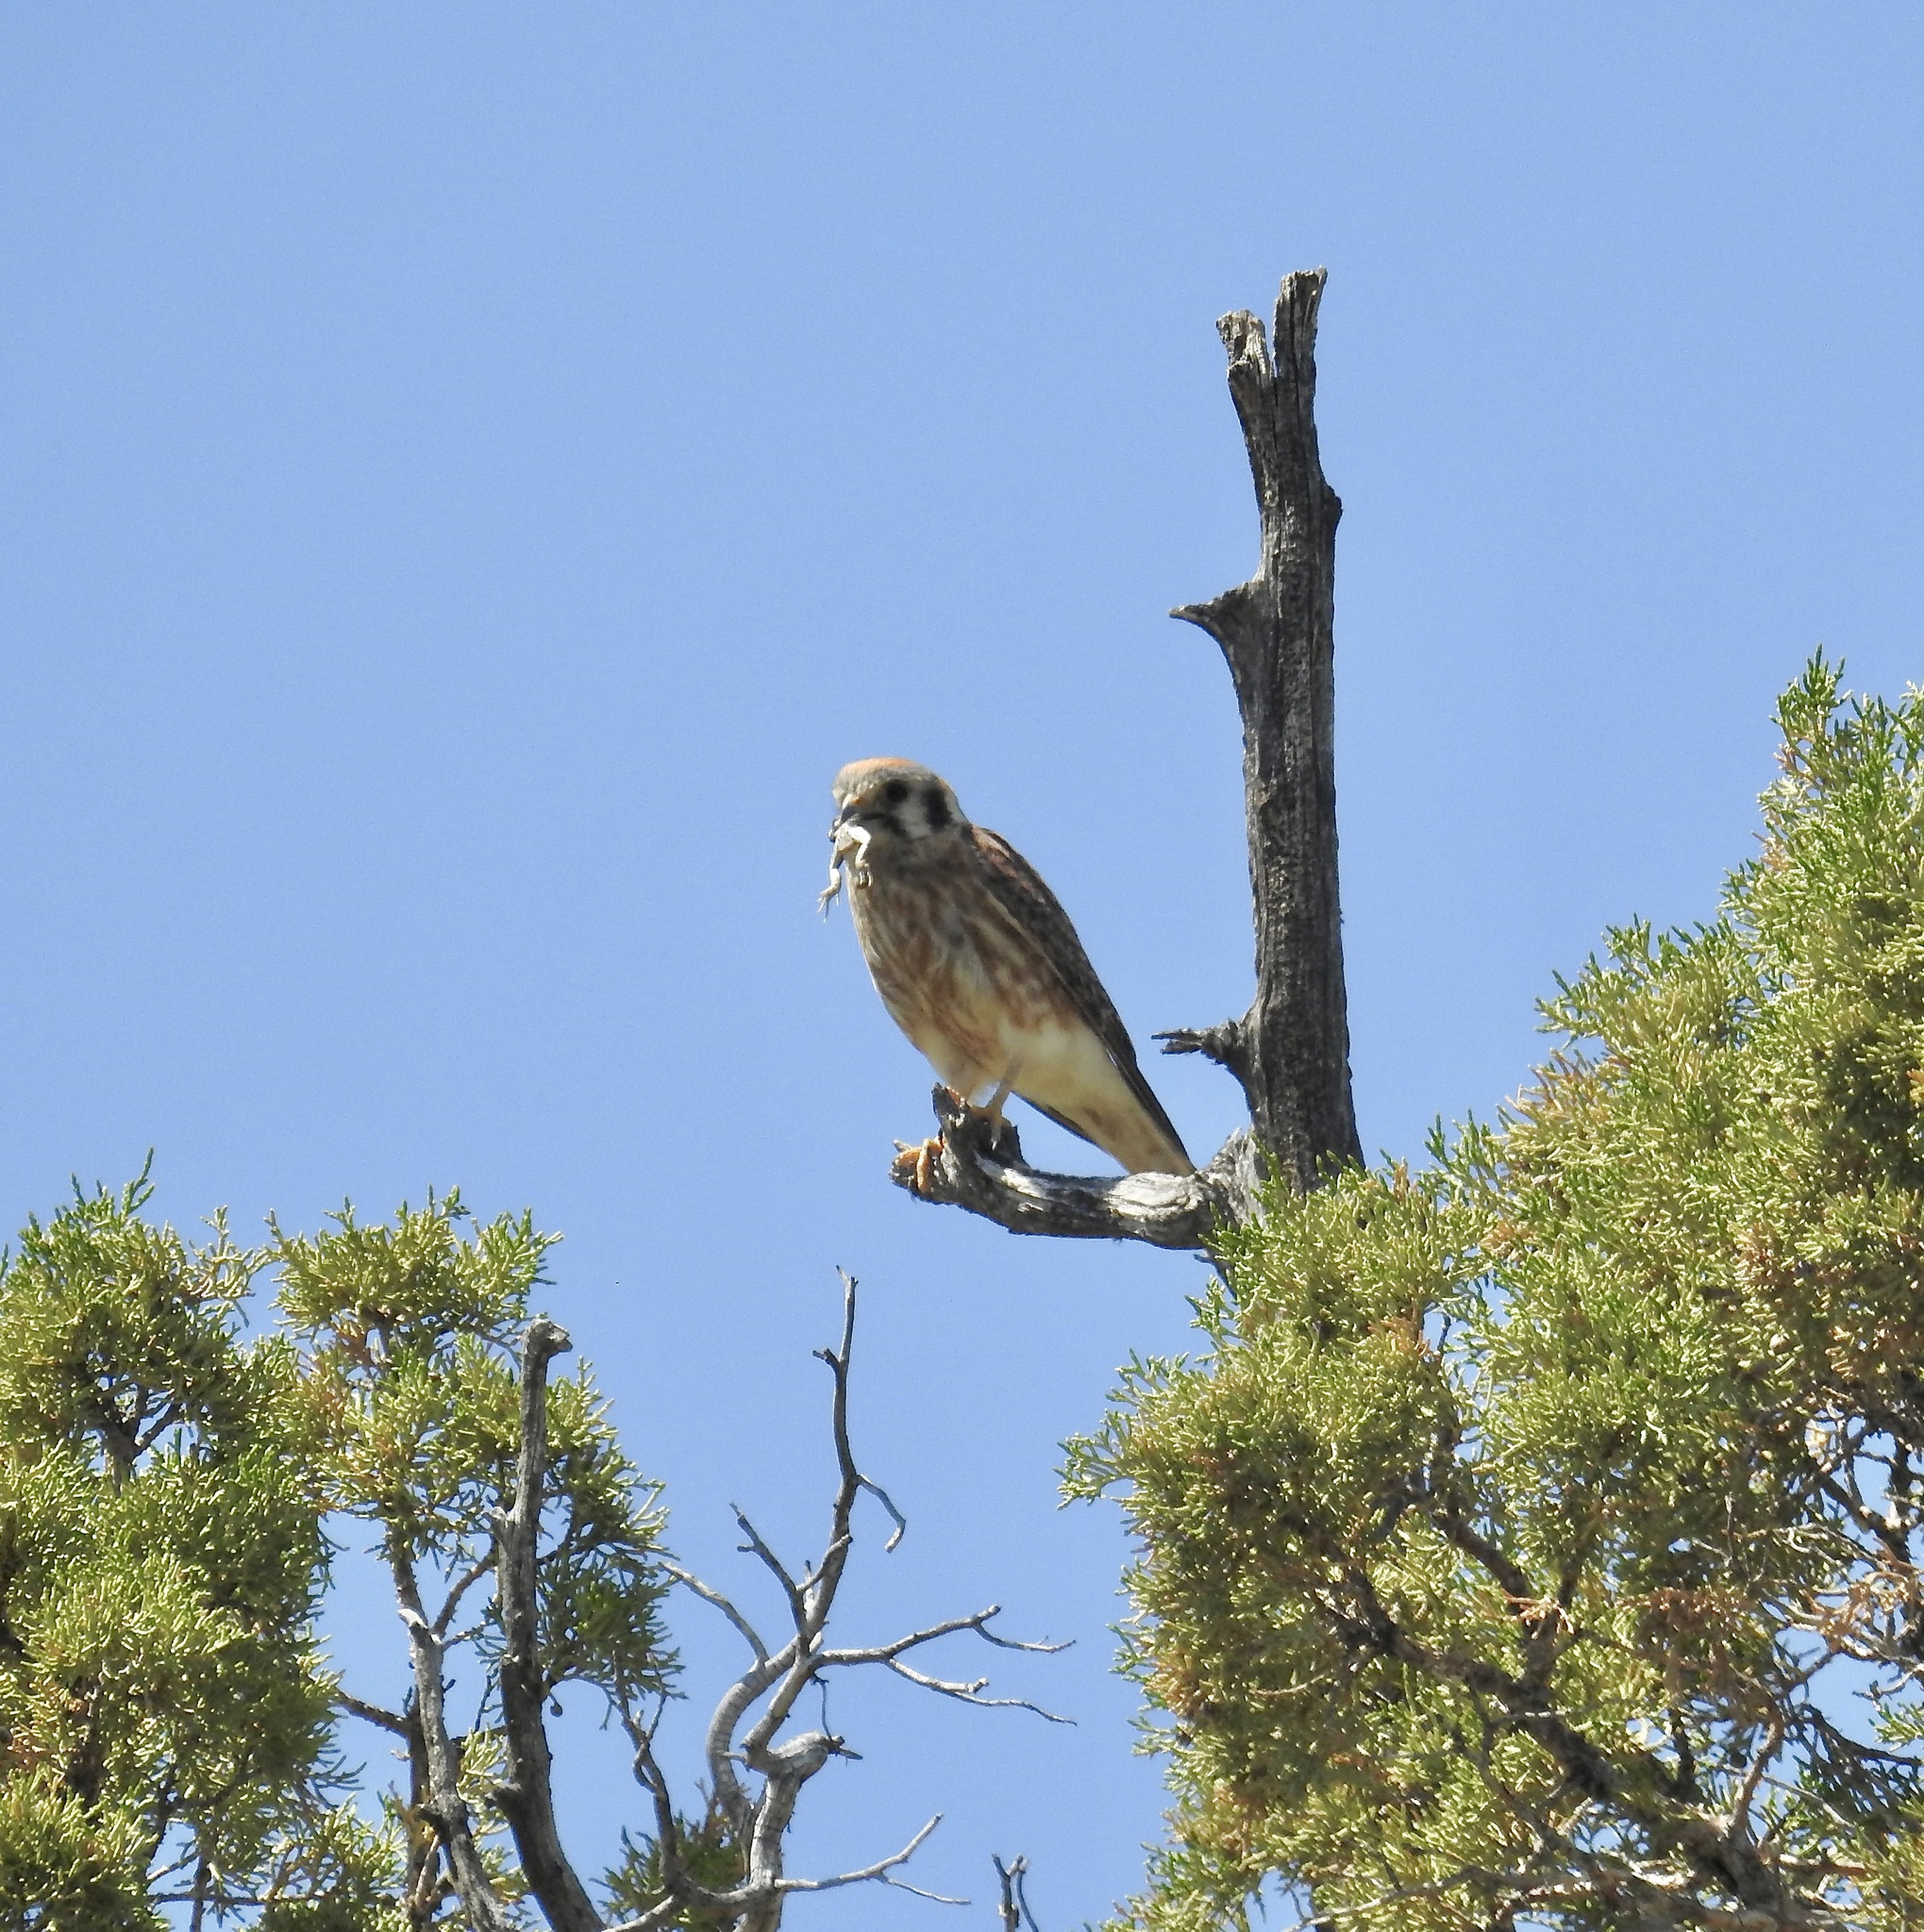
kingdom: Animalia
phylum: Chordata
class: Aves
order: Falconiformes
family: Falconidae
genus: Falco
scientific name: Falco sparverius
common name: American kestrel
